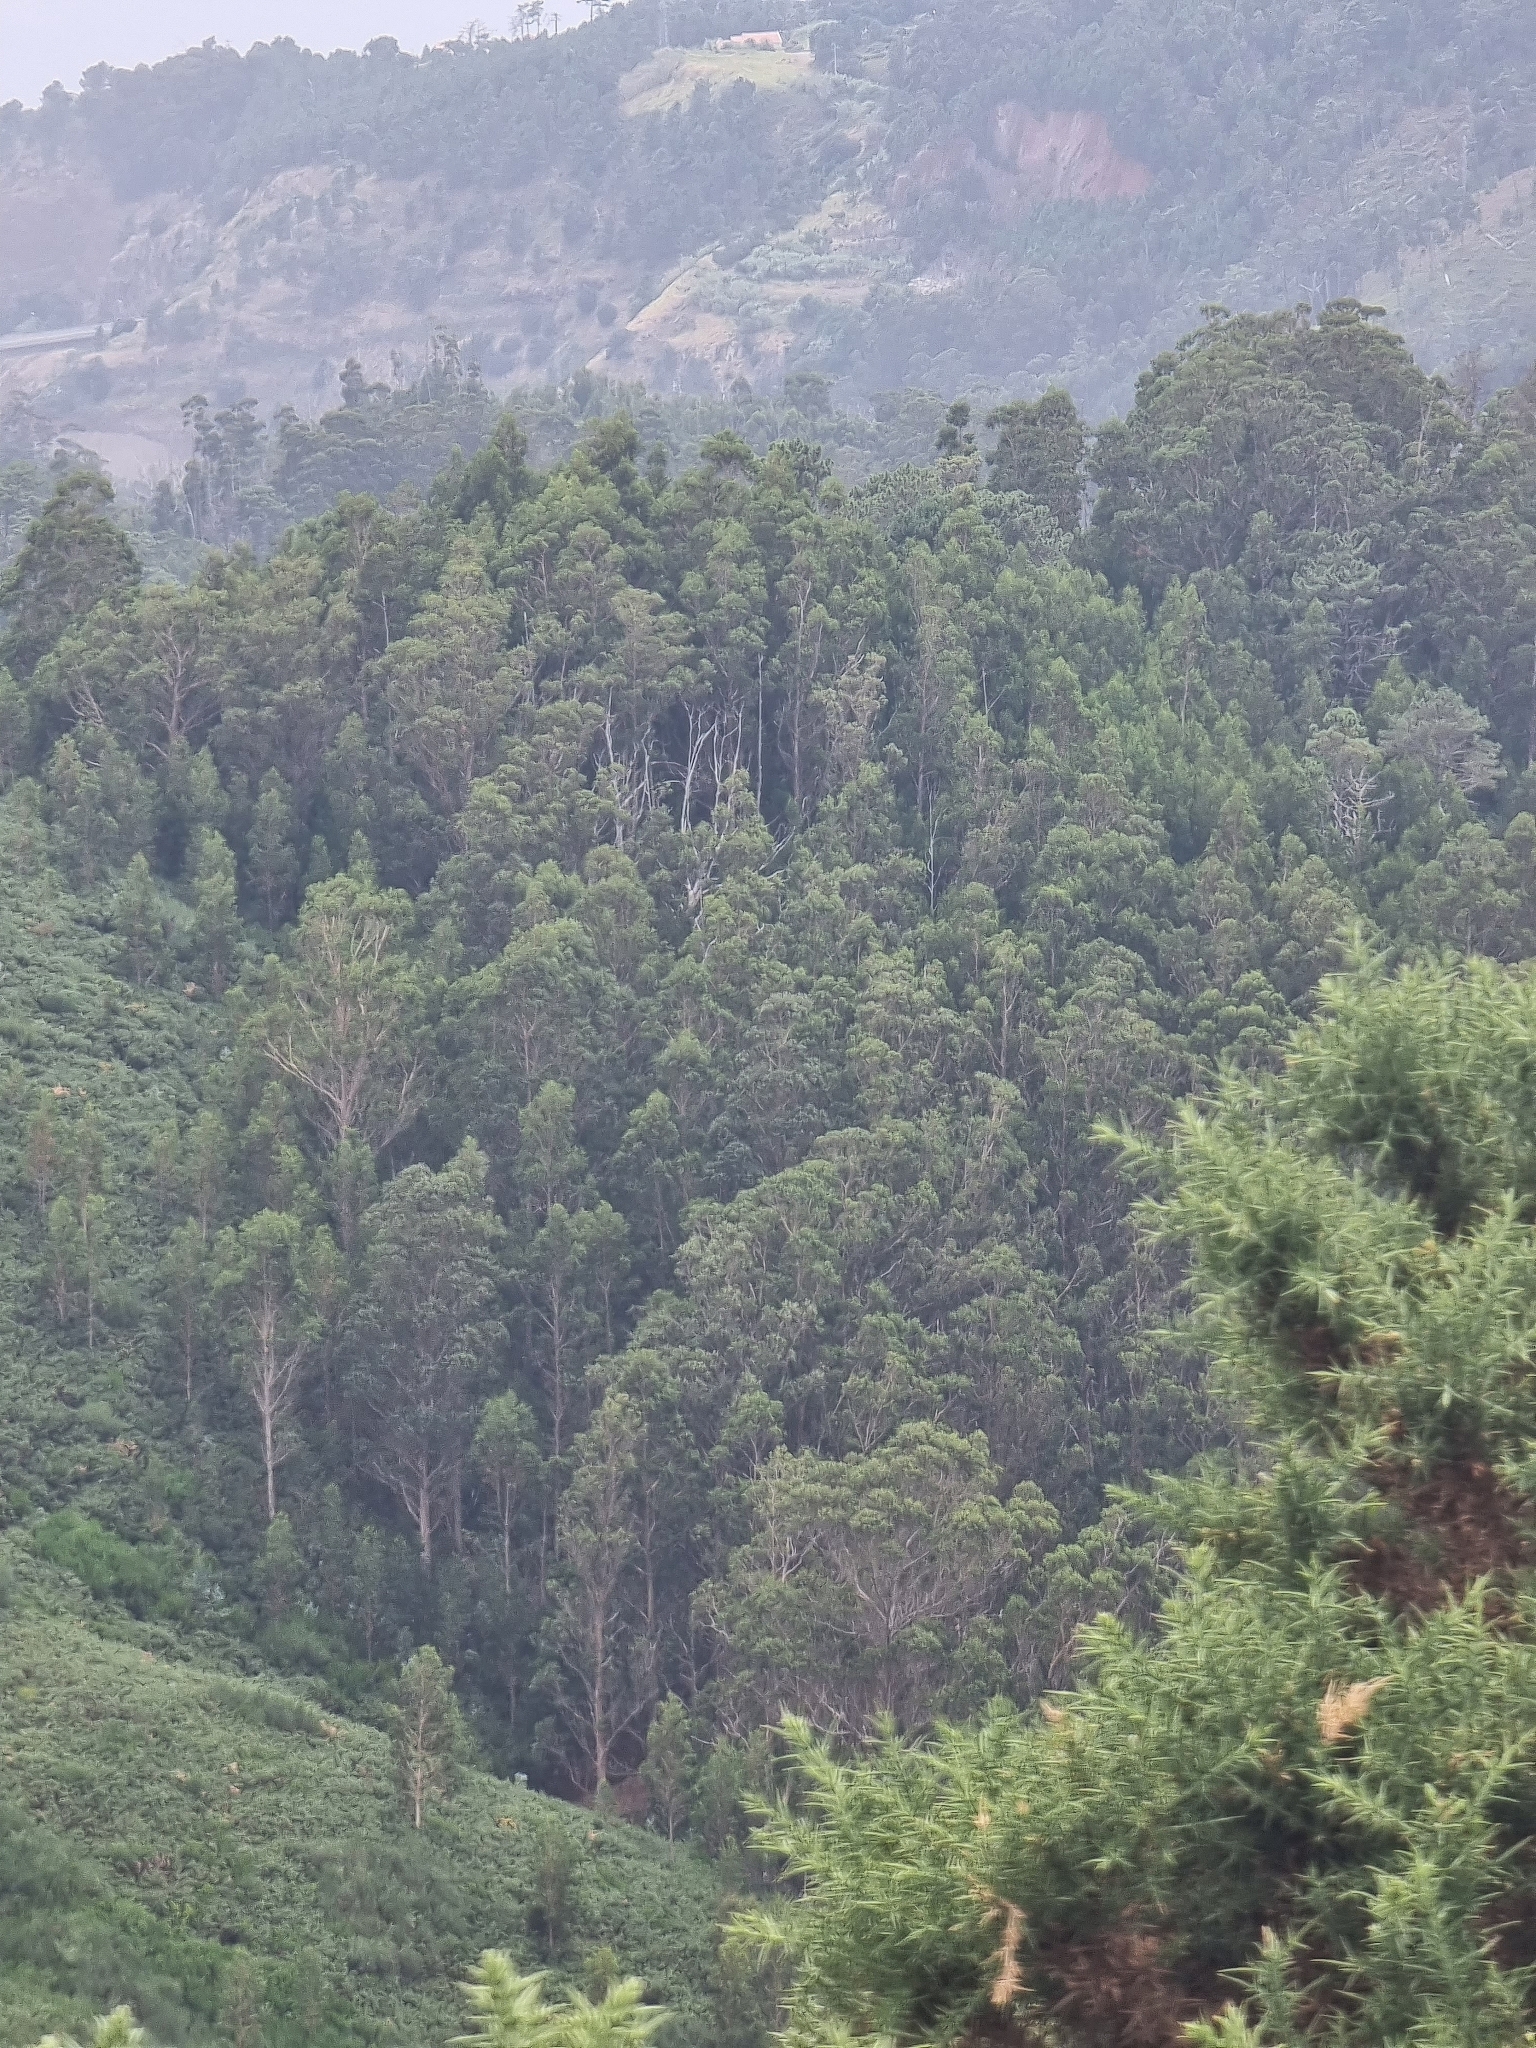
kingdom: Plantae
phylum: Tracheophyta
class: Magnoliopsida
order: Myrtales
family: Myrtaceae
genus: Eucalyptus
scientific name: Eucalyptus globulus
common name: Southern blue-gum
